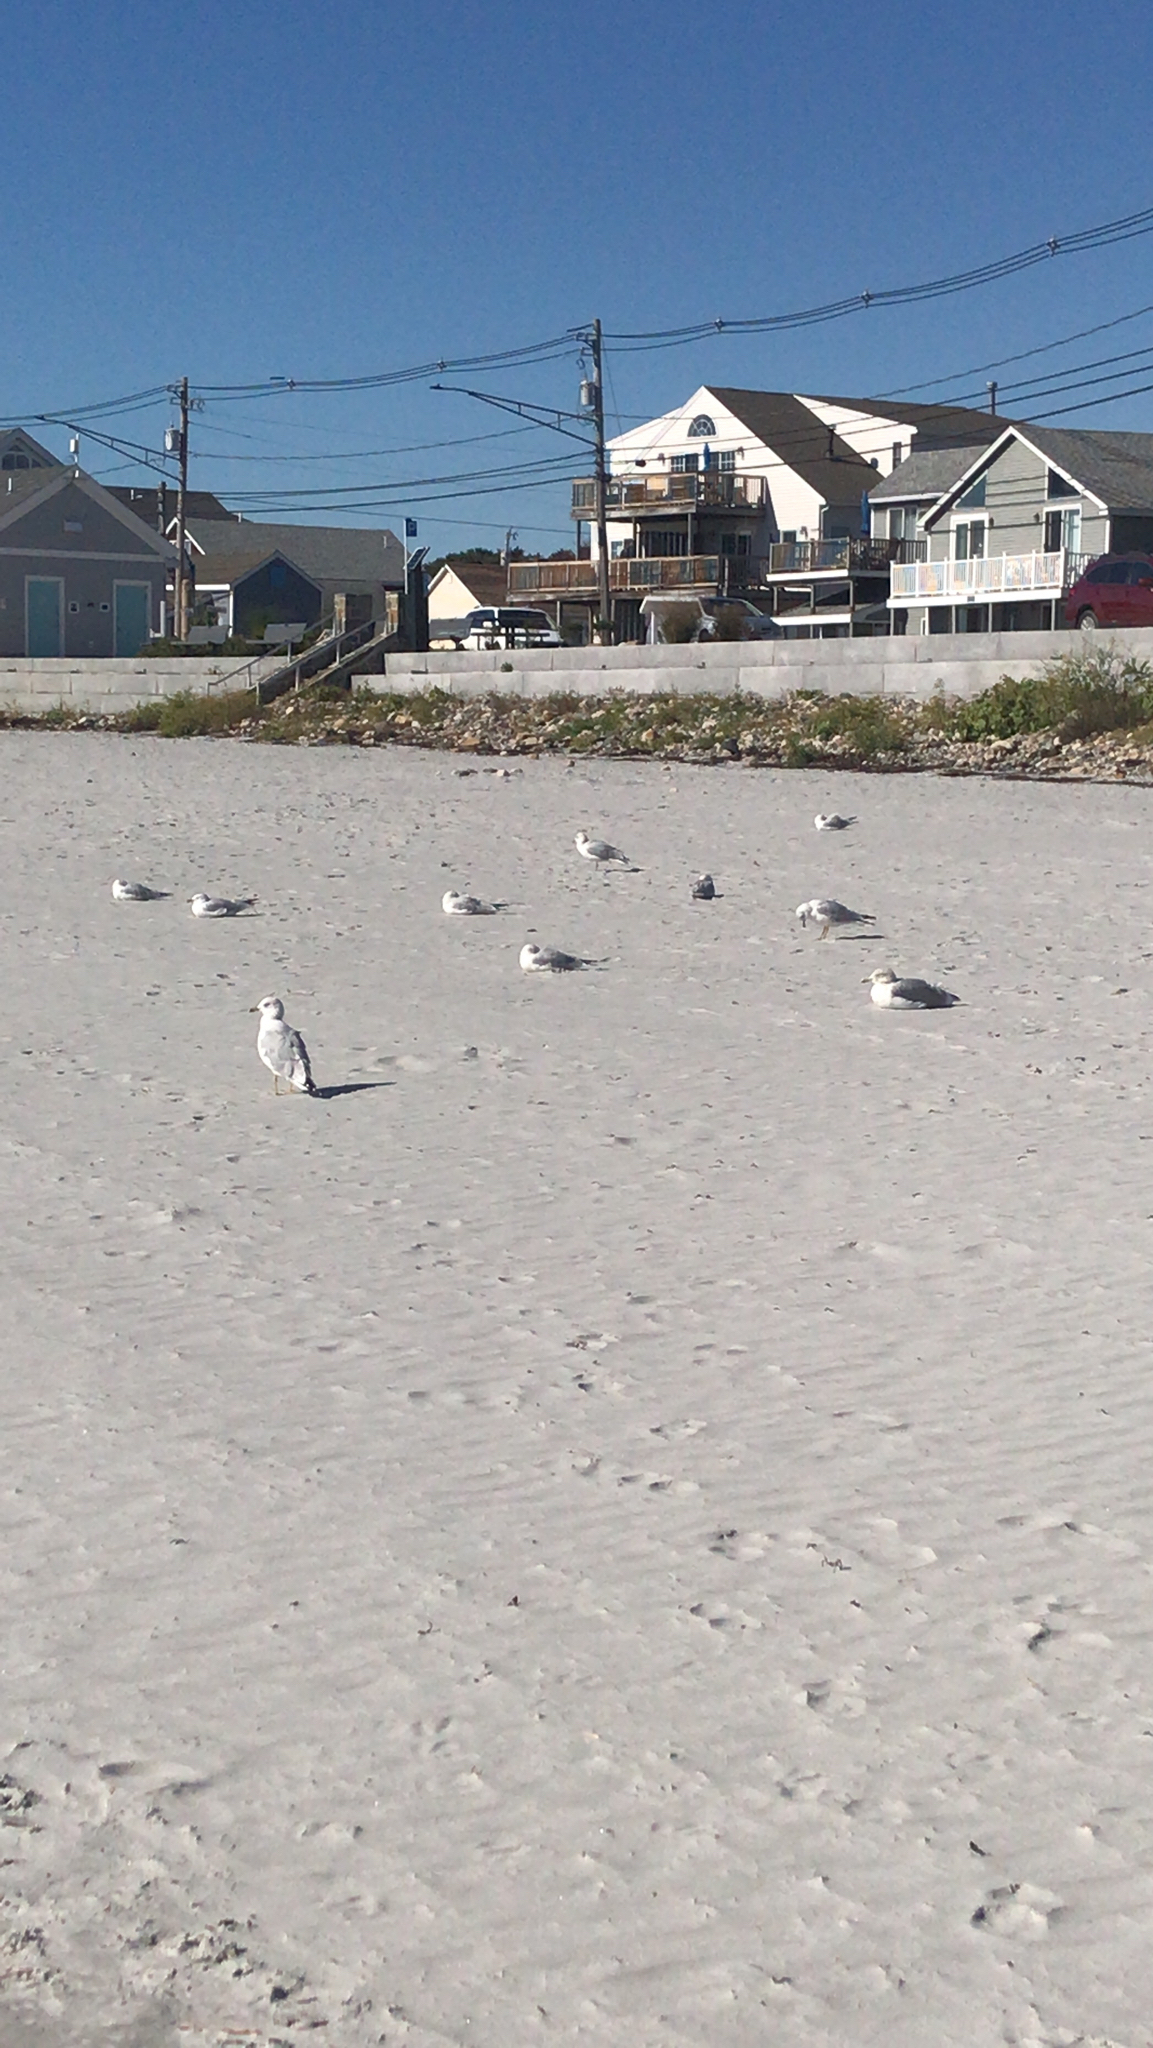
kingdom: Animalia
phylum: Chordata
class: Aves
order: Charadriiformes
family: Laridae
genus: Larus
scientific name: Larus delawarensis
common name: Ring-billed gull
